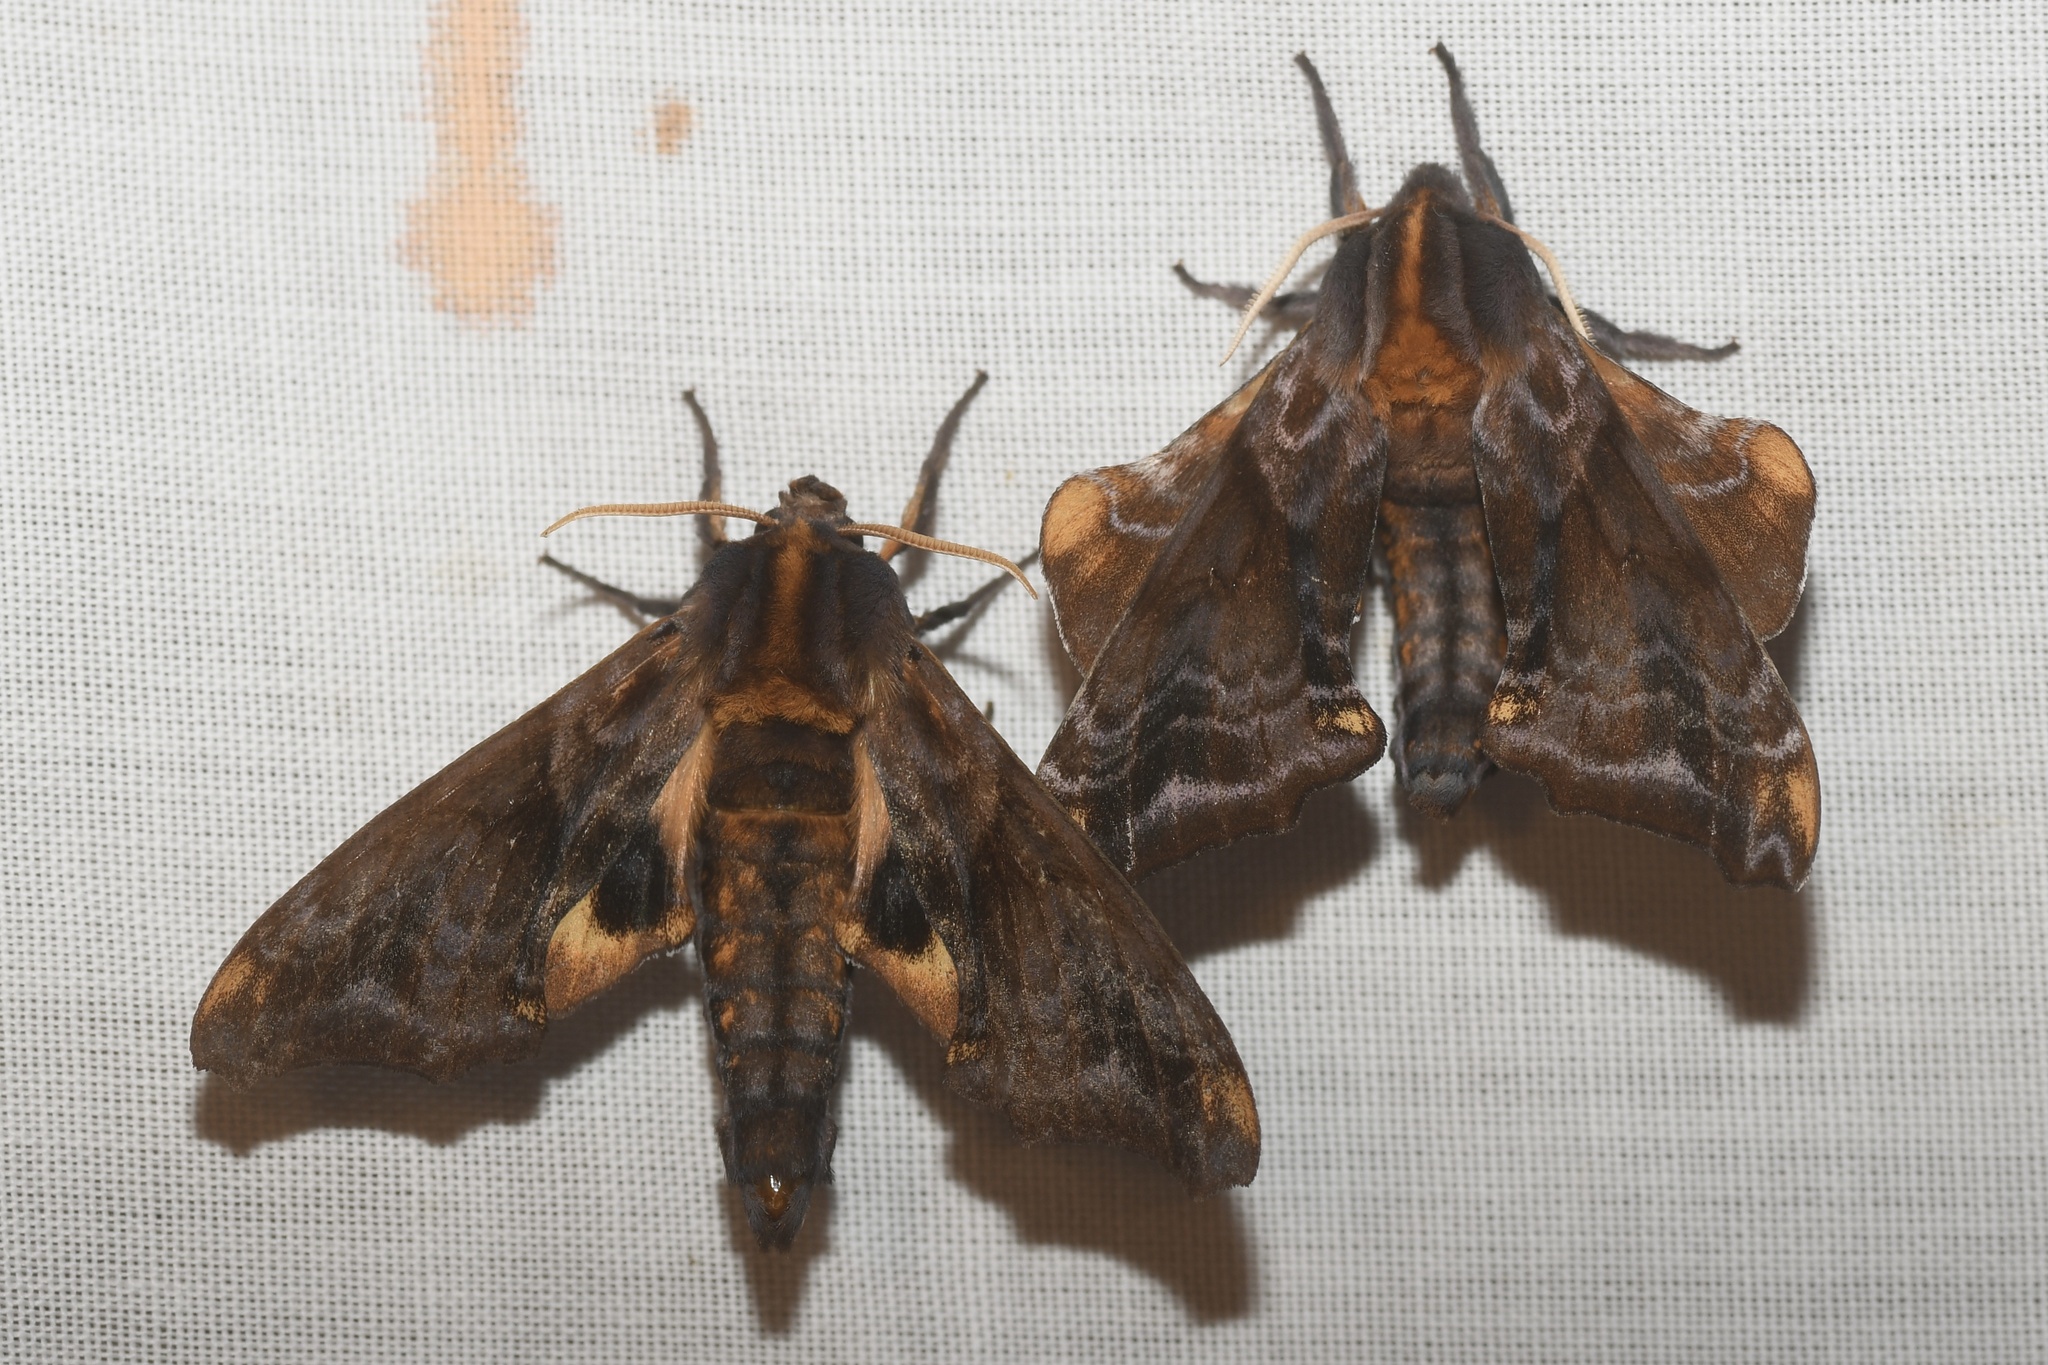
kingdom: Animalia
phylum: Arthropoda
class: Insecta
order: Lepidoptera
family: Sphingidae
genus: Paonias
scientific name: Paonias myops
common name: Small-eyed sphinx
